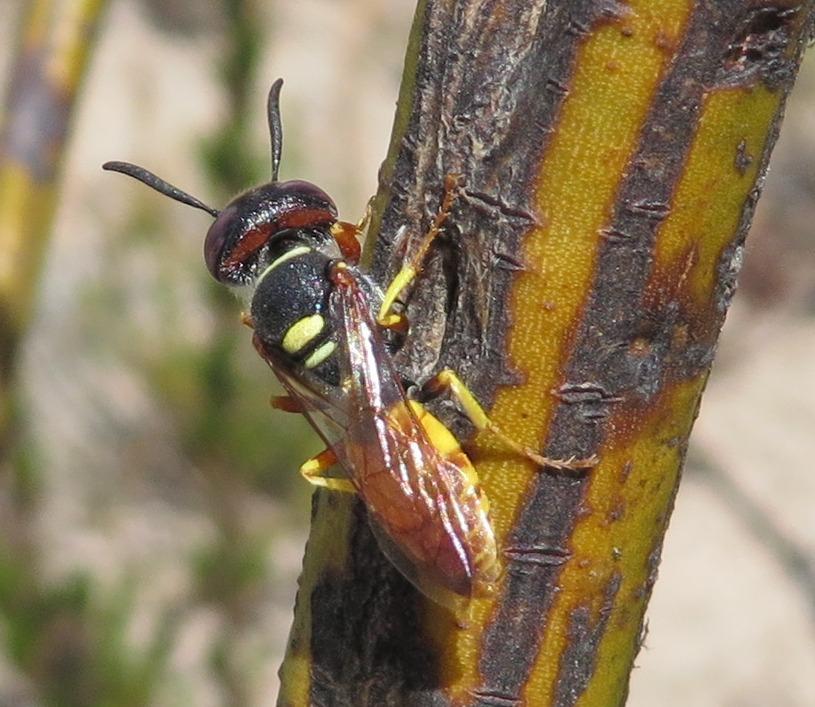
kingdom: Animalia
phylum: Arthropoda
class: Insecta
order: Hymenoptera
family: Crabronidae
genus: Philanthus
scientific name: Philanthus triangulum
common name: Bee wolf
